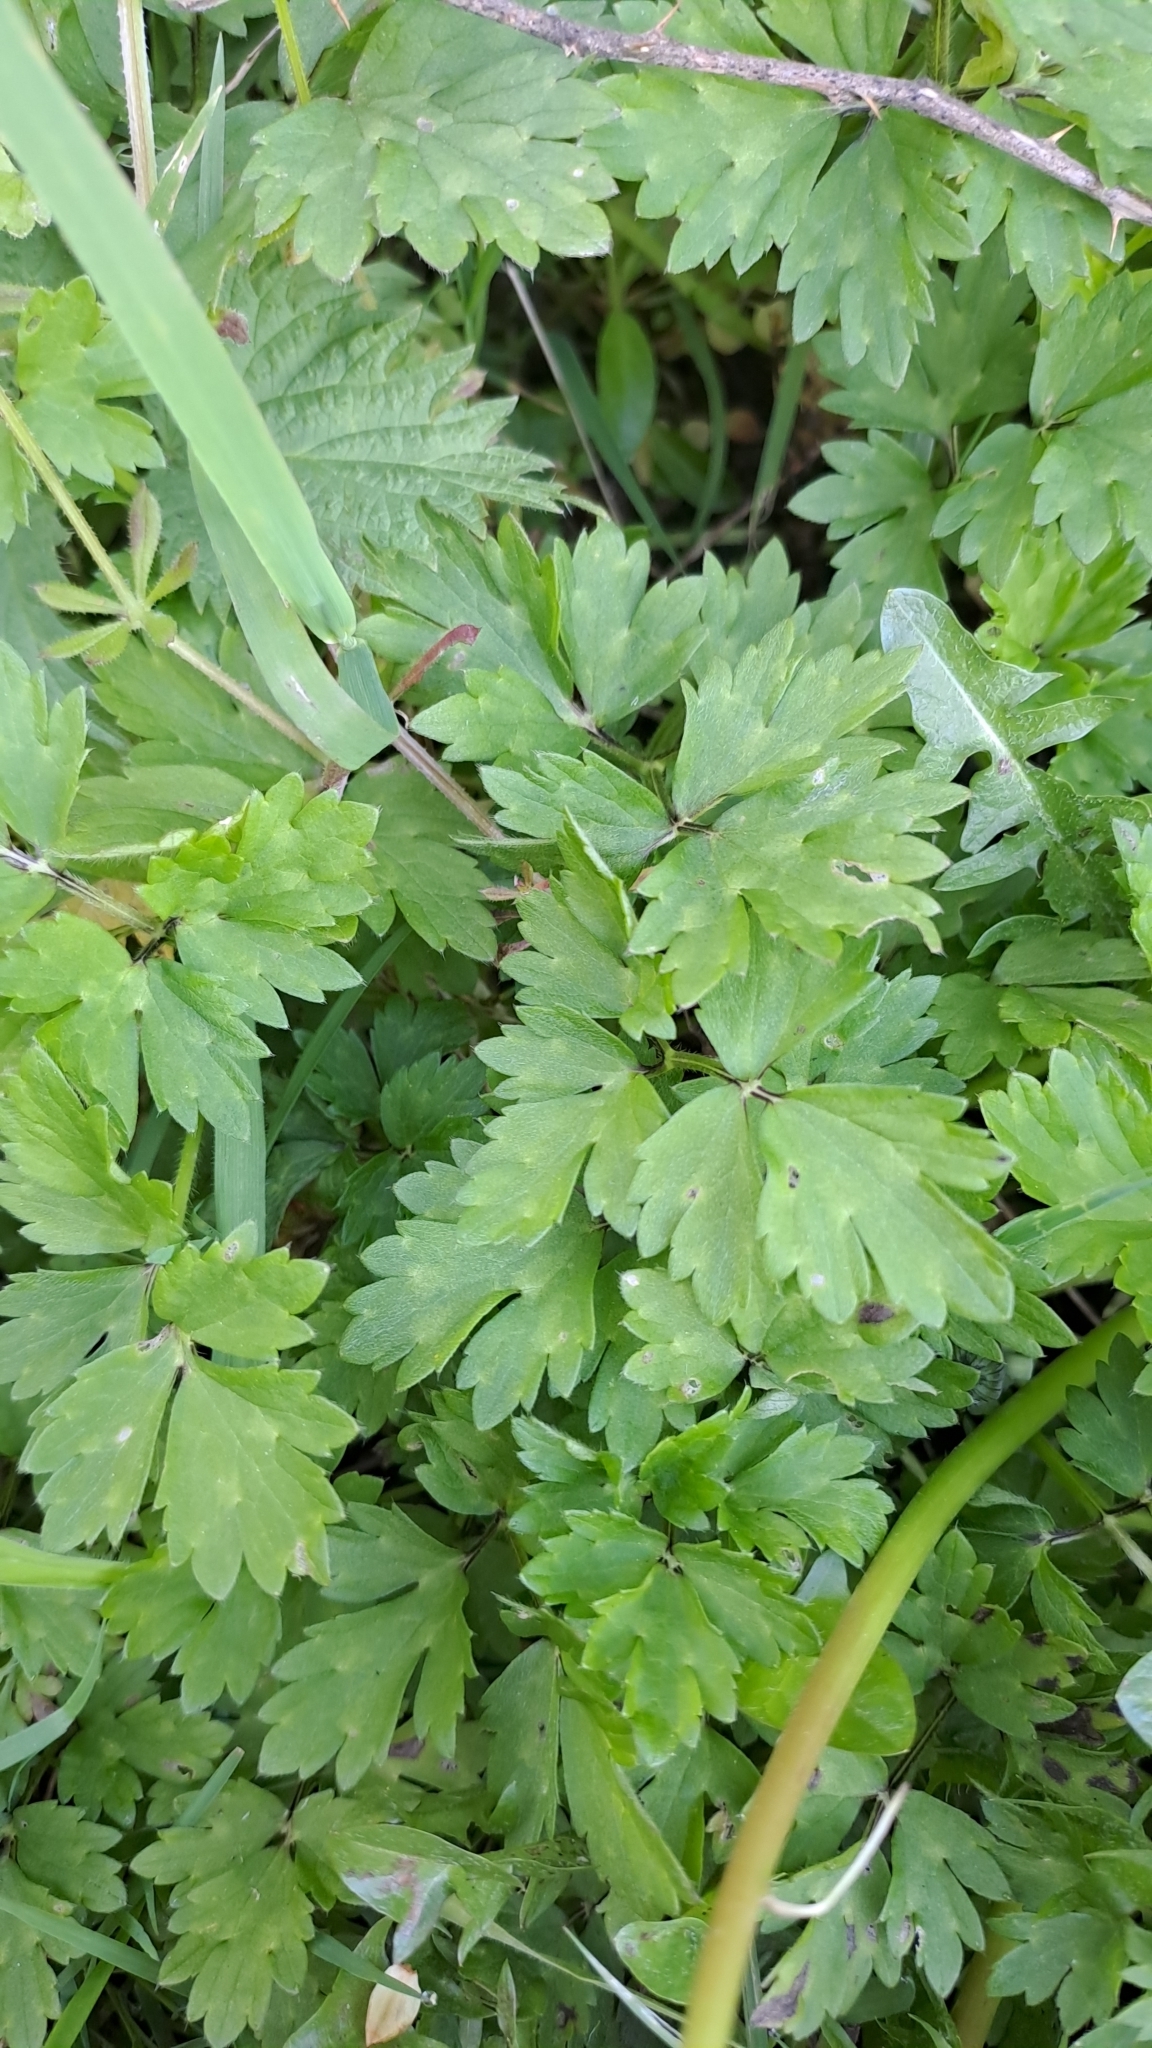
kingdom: Plantae
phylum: Tracheophyta
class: Magnoliopsida
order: Ranunculales
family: Ranunculaceae
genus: Ranunculus
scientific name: Ranunculus repens
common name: Creeping buttercup
